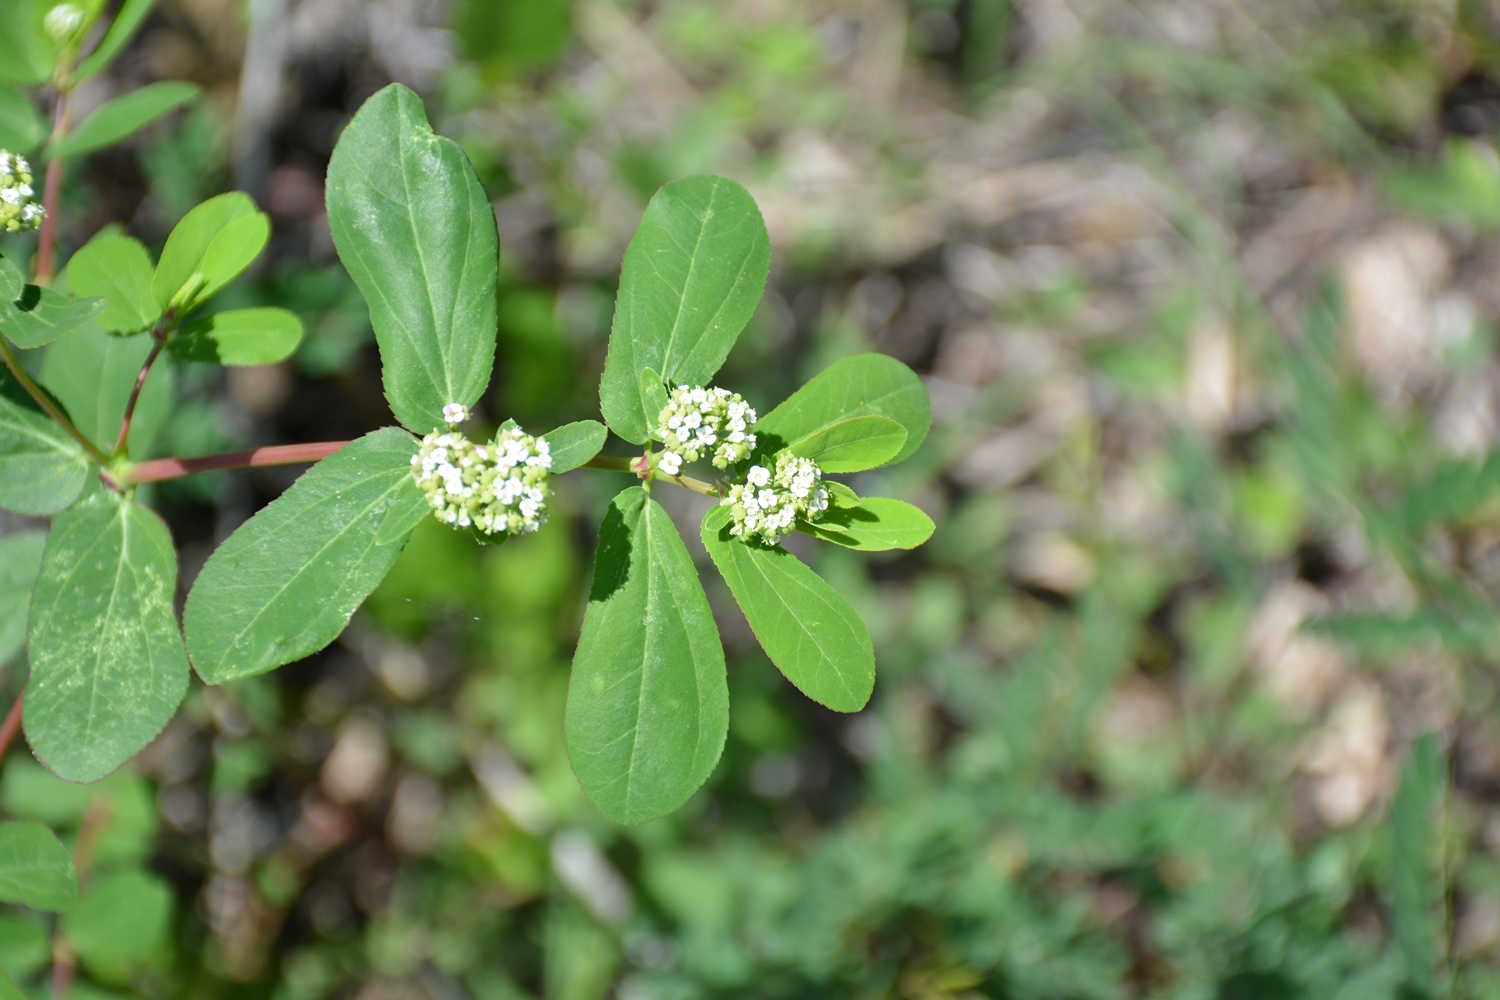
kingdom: Plantae
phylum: Tracheophyta
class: Magnoliopsida
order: Malpighiales
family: Euphorbiaceae
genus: Euphorbia
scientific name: Euphorbia hypericifolia
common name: Graceful sandmat
